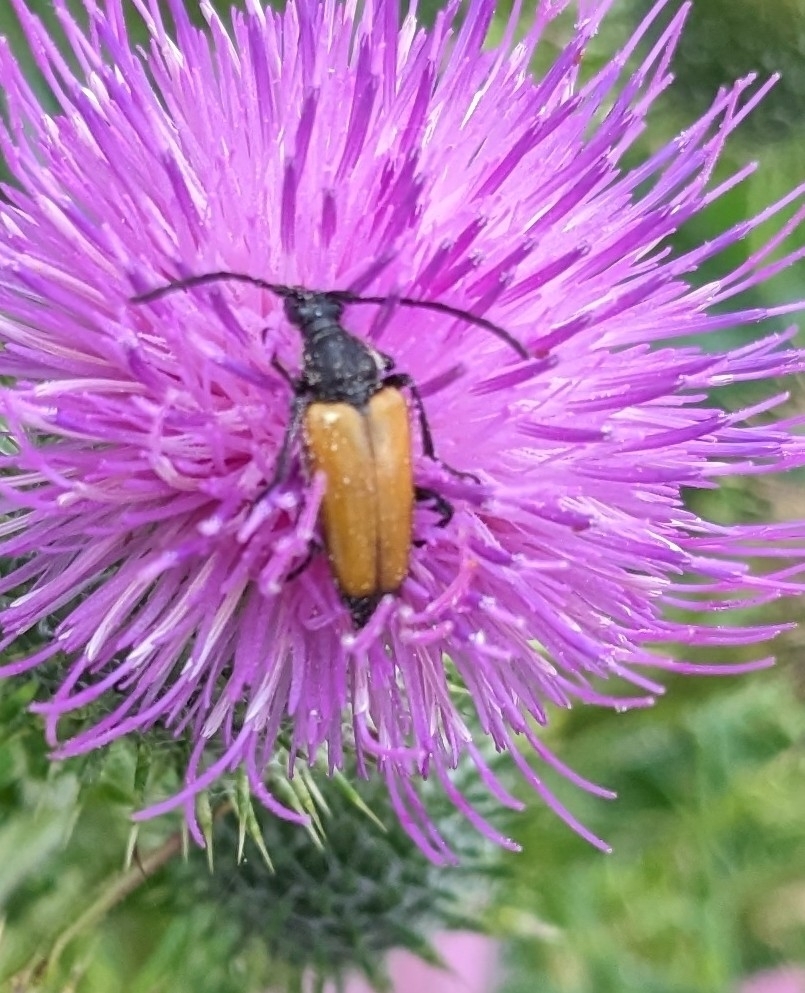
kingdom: Animalia
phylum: Arthropoda
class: Insecta
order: Coleoptera
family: Cerambycidae
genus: Paracorymbia
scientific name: Paracorymbia fulva
